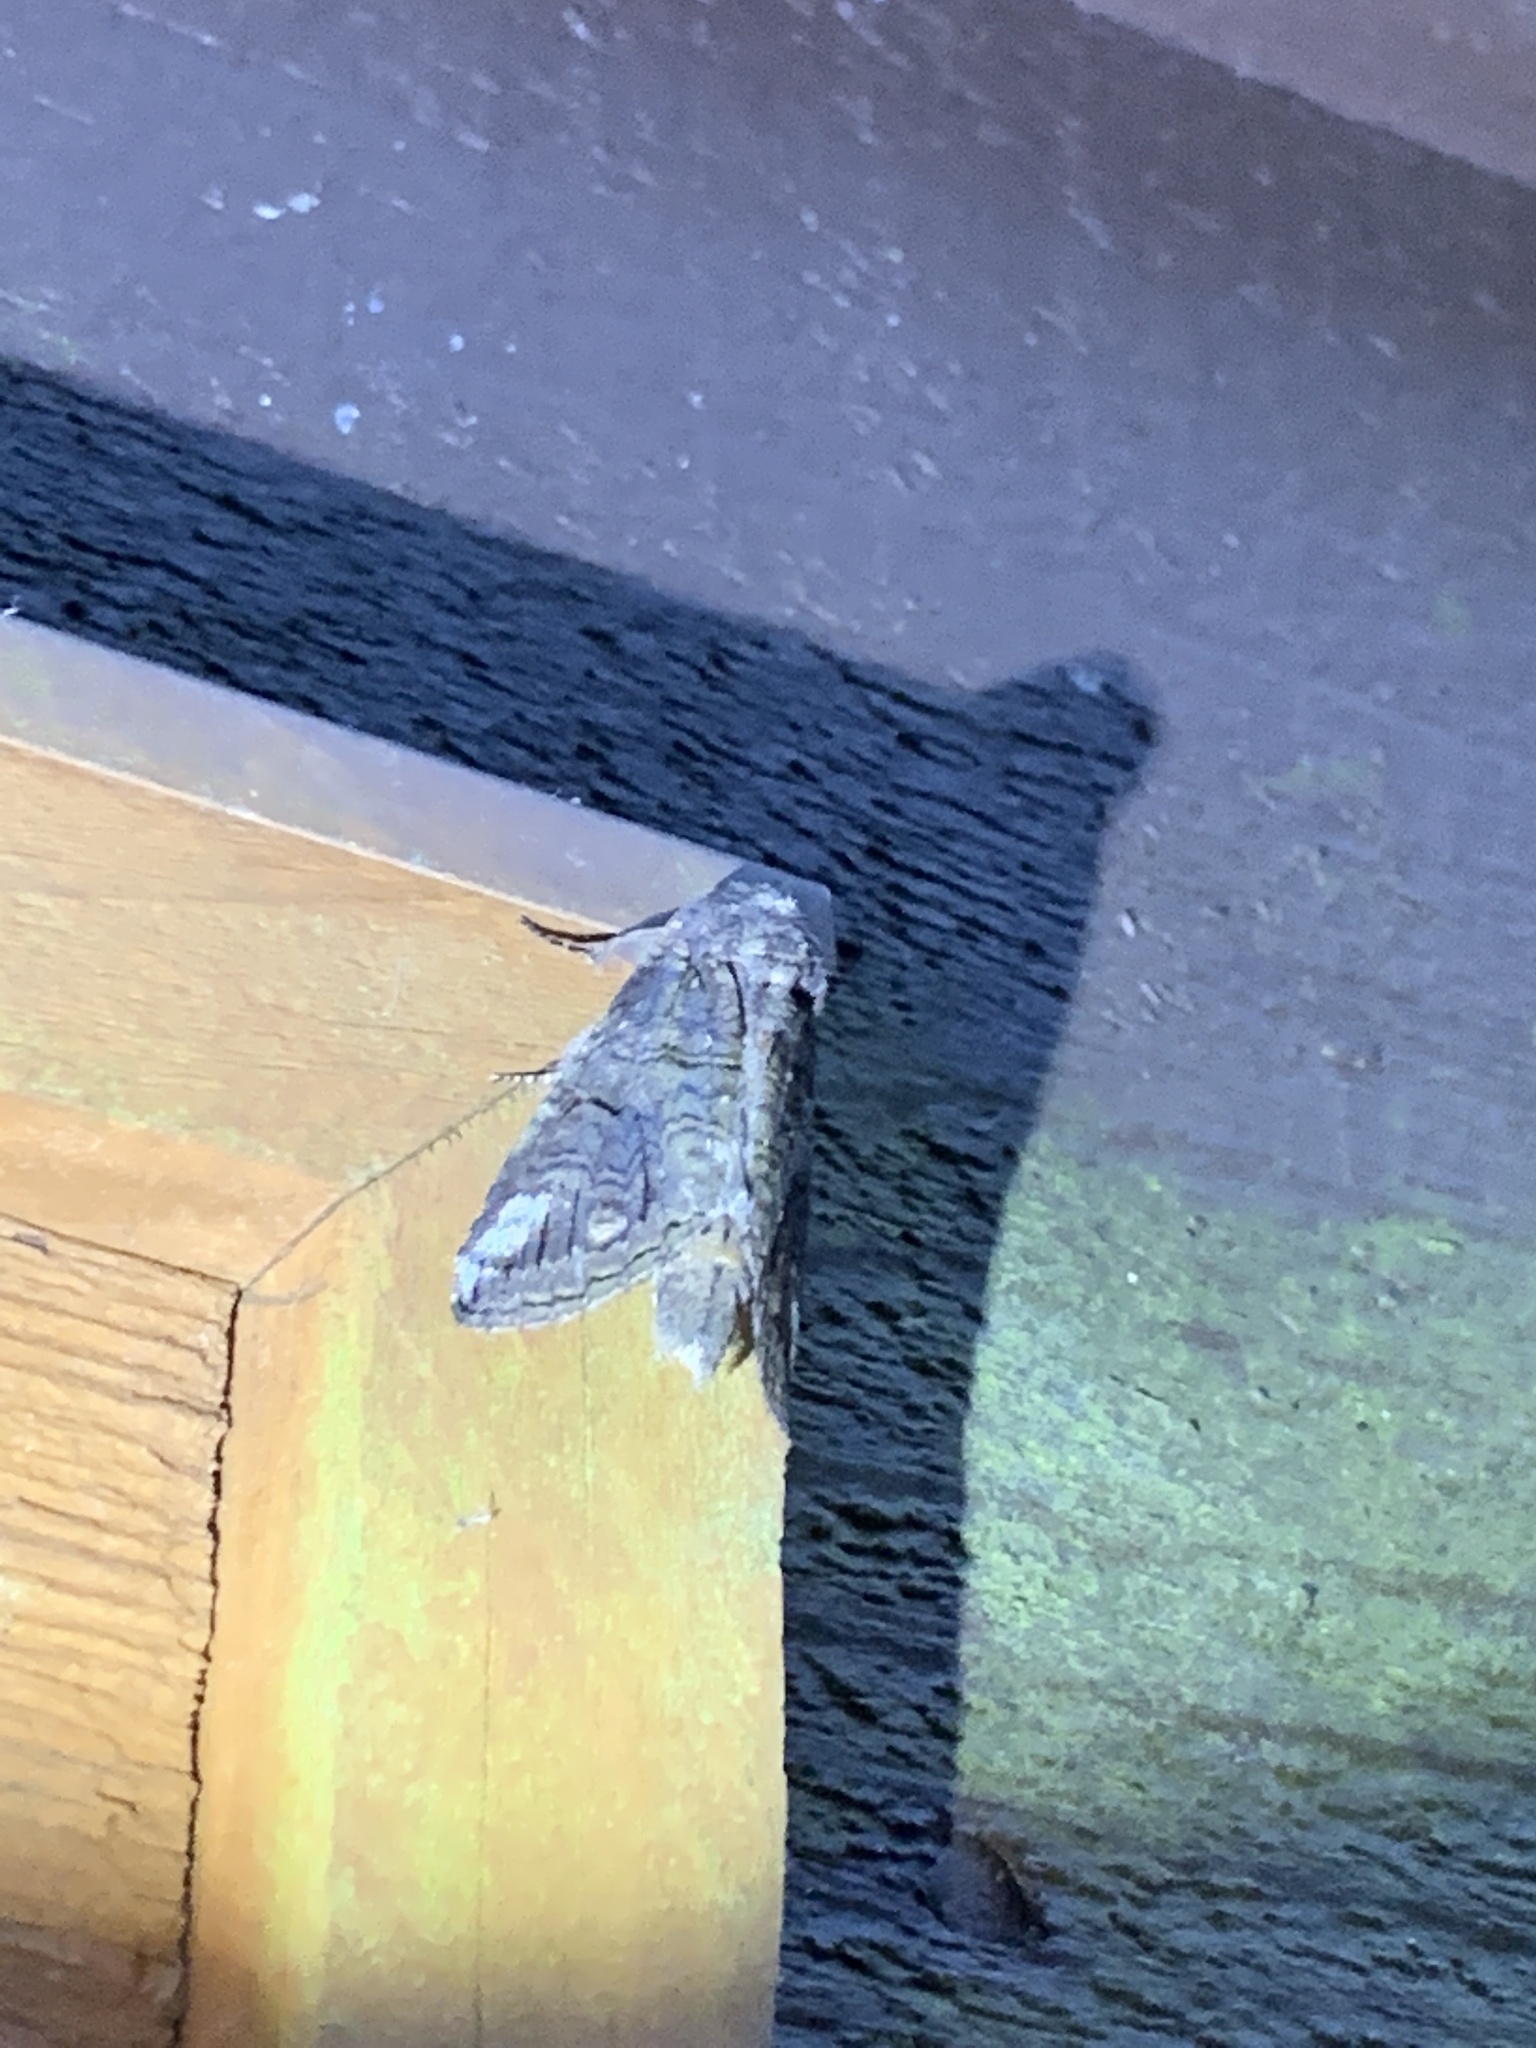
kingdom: Animalia
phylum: Arthropoda
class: Insecta
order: Lepidoptera
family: Notodontidae
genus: Heterocampa
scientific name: Heterocampa obliqua
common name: Oblique heterocampa
